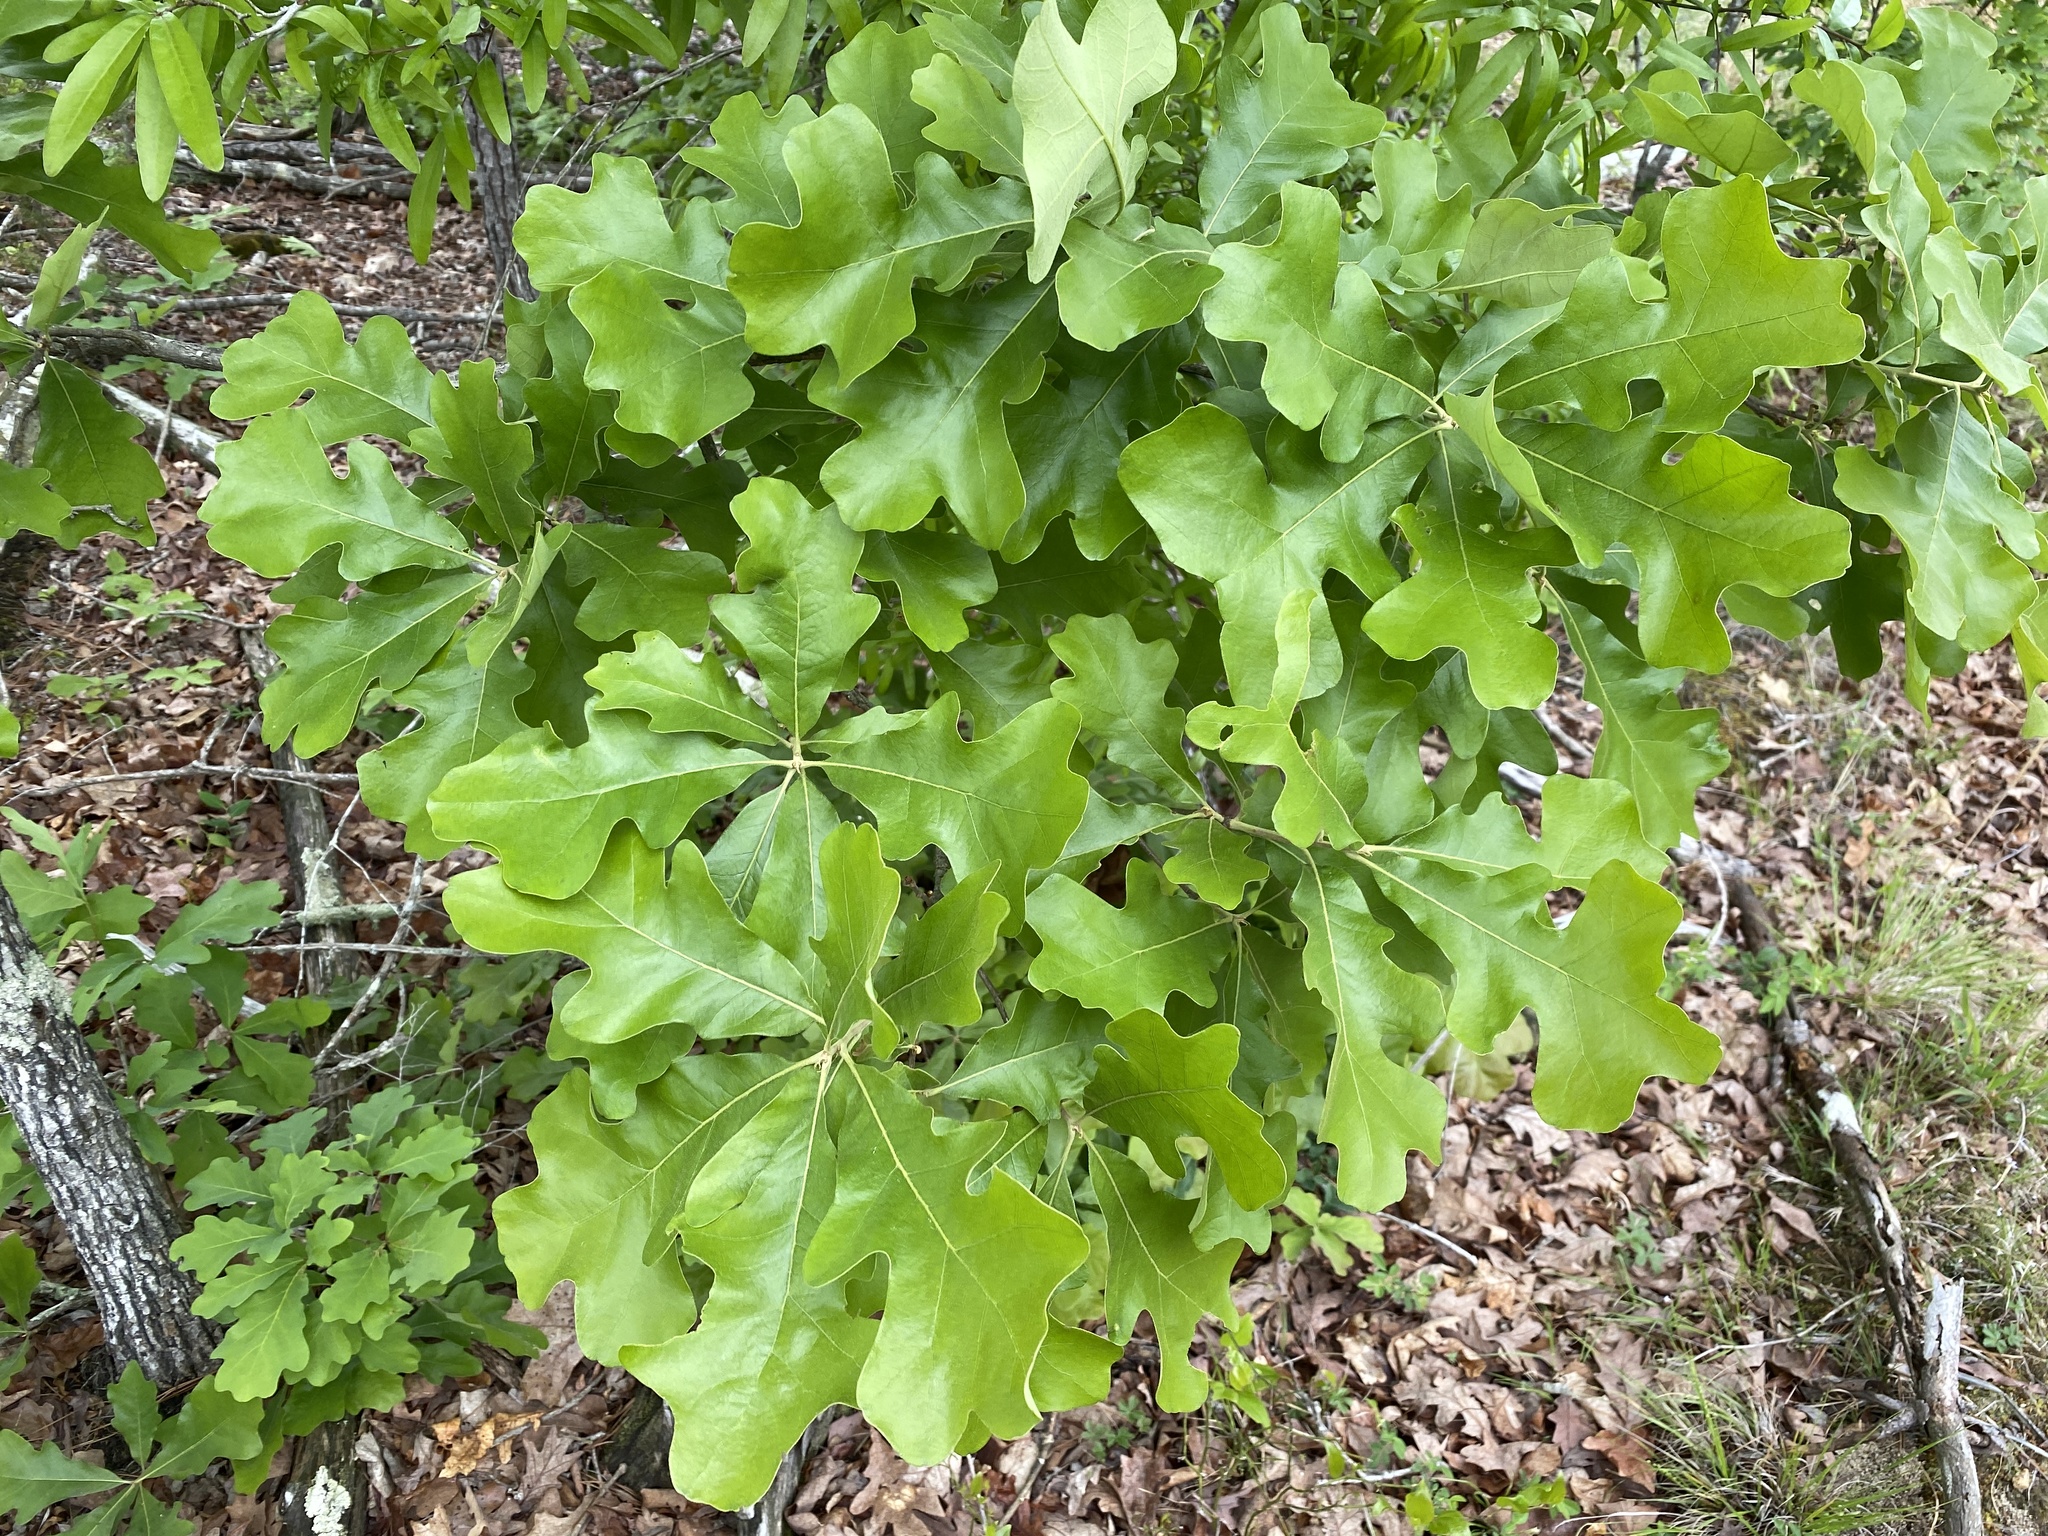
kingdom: Plantae
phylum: Tracheophyta
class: Magnoliopsida
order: Fagales
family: Fagaceae
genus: Quercus
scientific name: Quercus stellata
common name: Post oak
